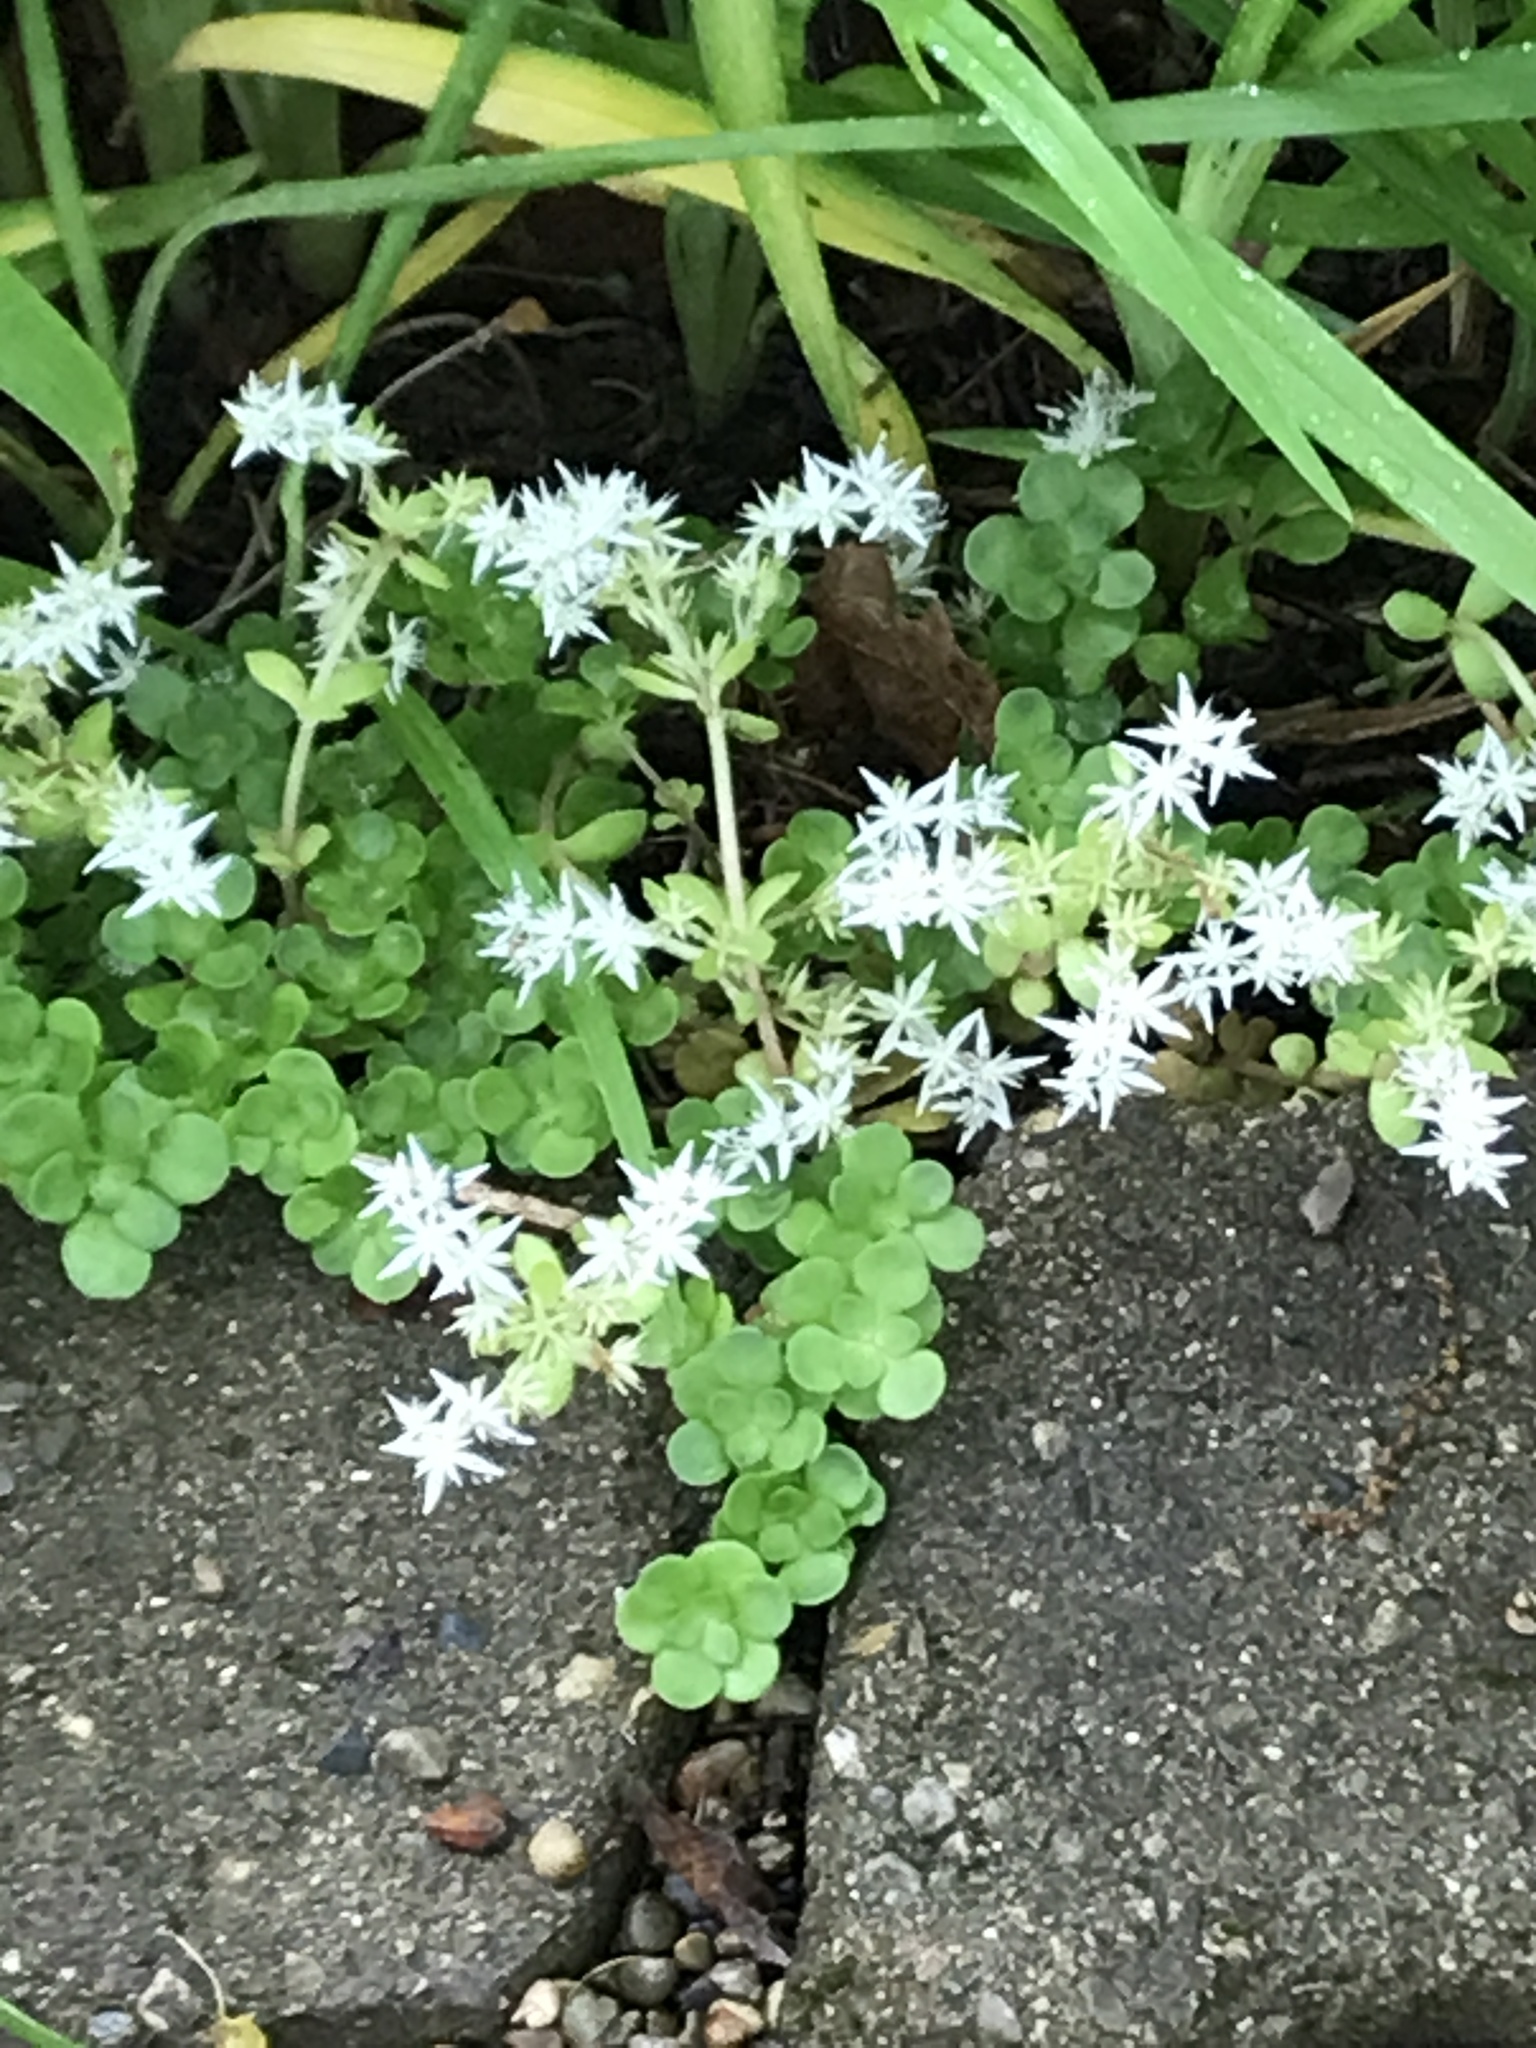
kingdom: Plantae
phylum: Tracheophyta
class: Magnoliopsida
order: Saxifragales
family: Crassulaceae
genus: Sedum
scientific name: Sedum ternatum
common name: Wild stonecrop
